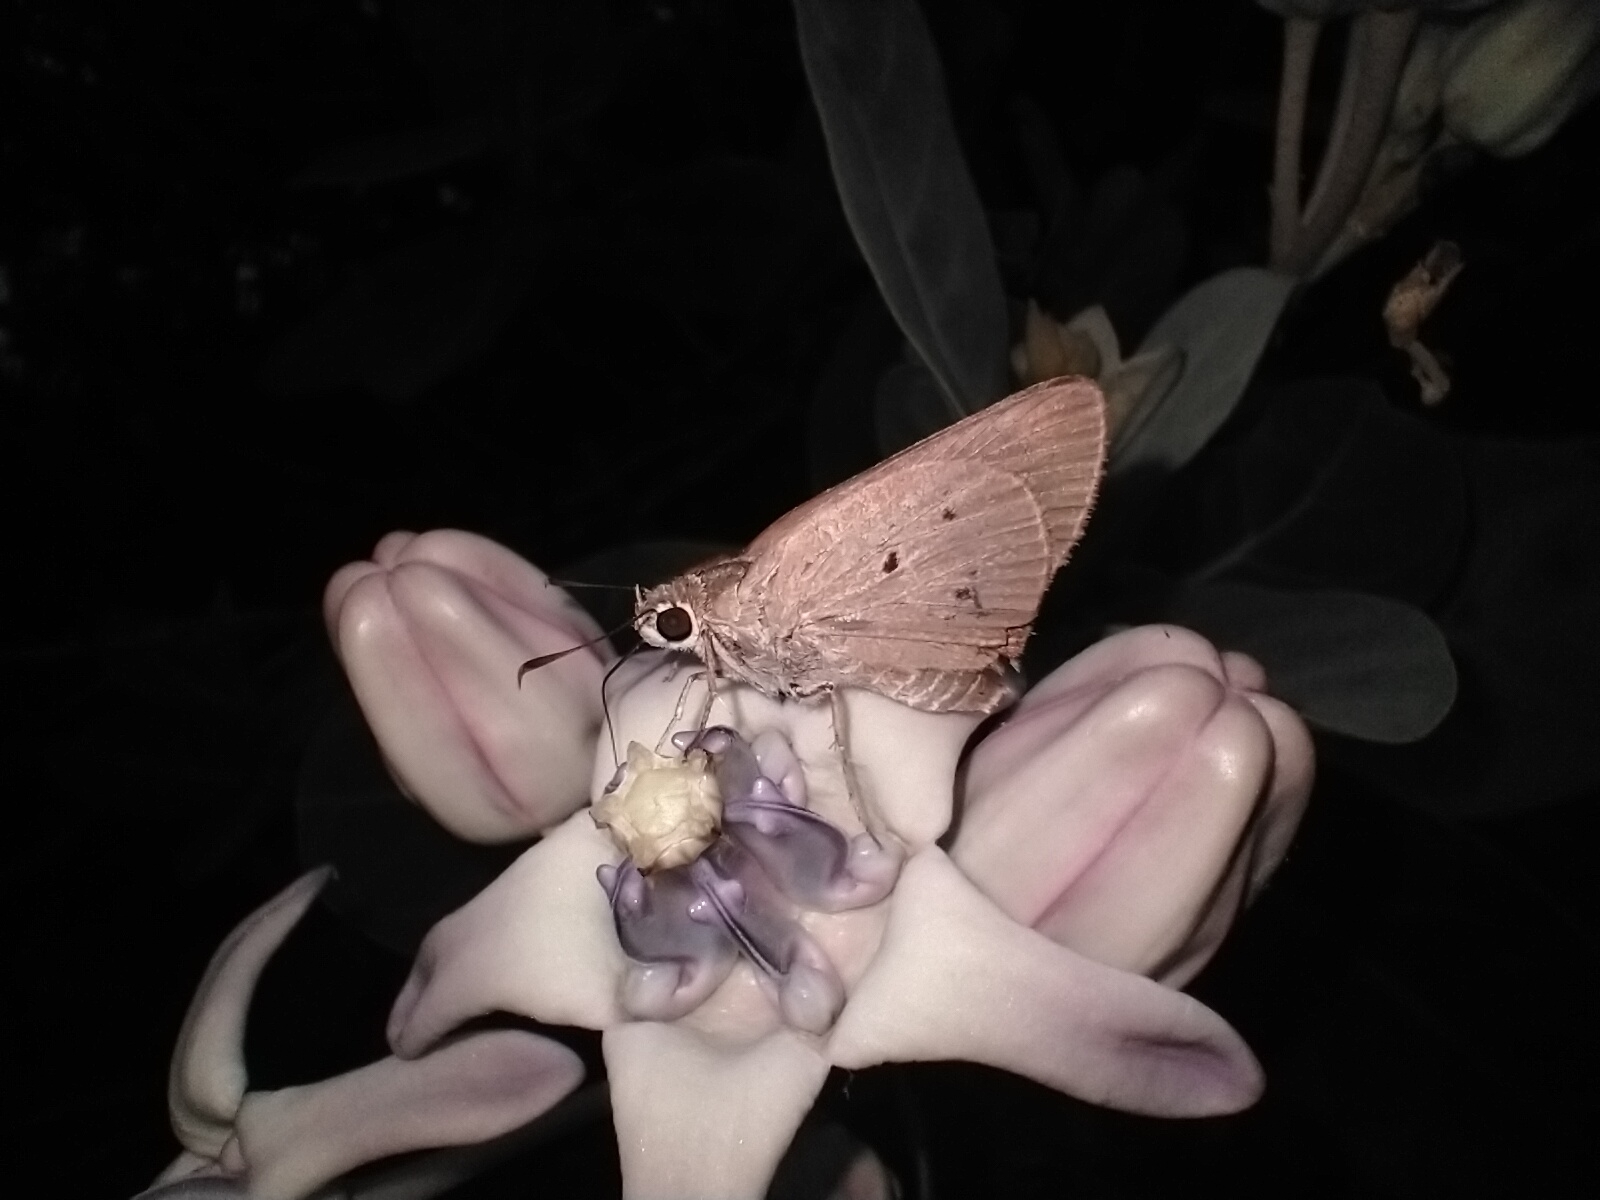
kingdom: Animalia
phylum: Arthropoda
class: Insecta
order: Lepidoptera
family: Hesperiidae
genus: Suastus
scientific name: Suastus gremius
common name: Indian palm bob
